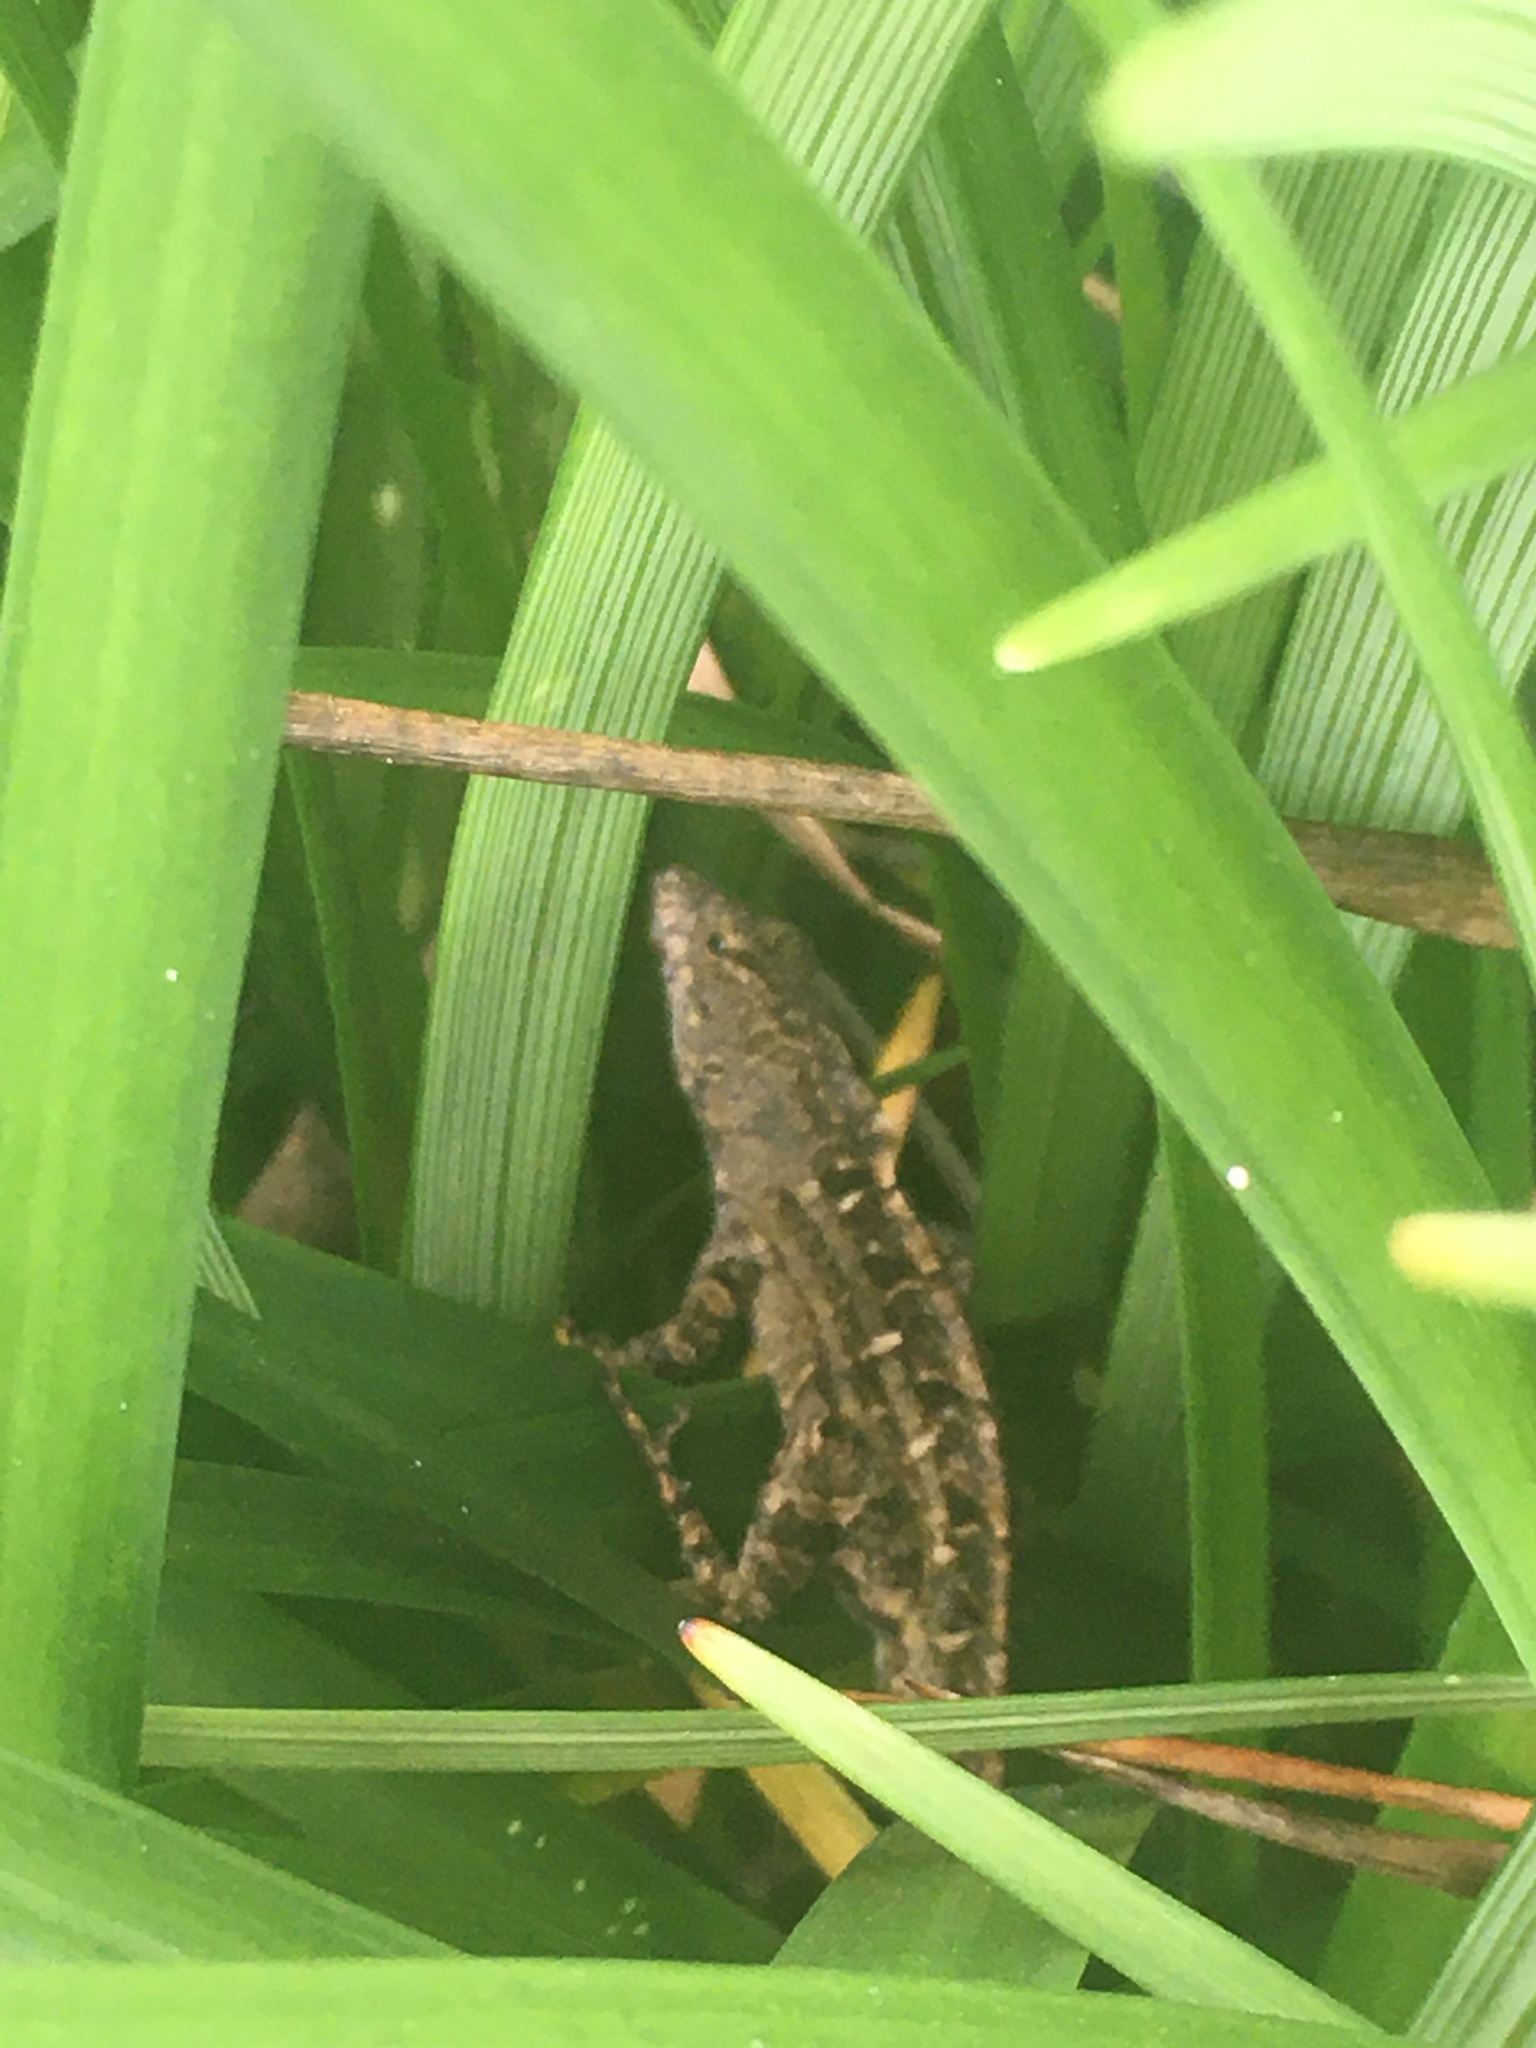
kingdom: Animalia
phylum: Chordata
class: Squamata
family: Dactyloidae
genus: Anolis
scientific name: Anolis sagrei
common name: Brown anole
